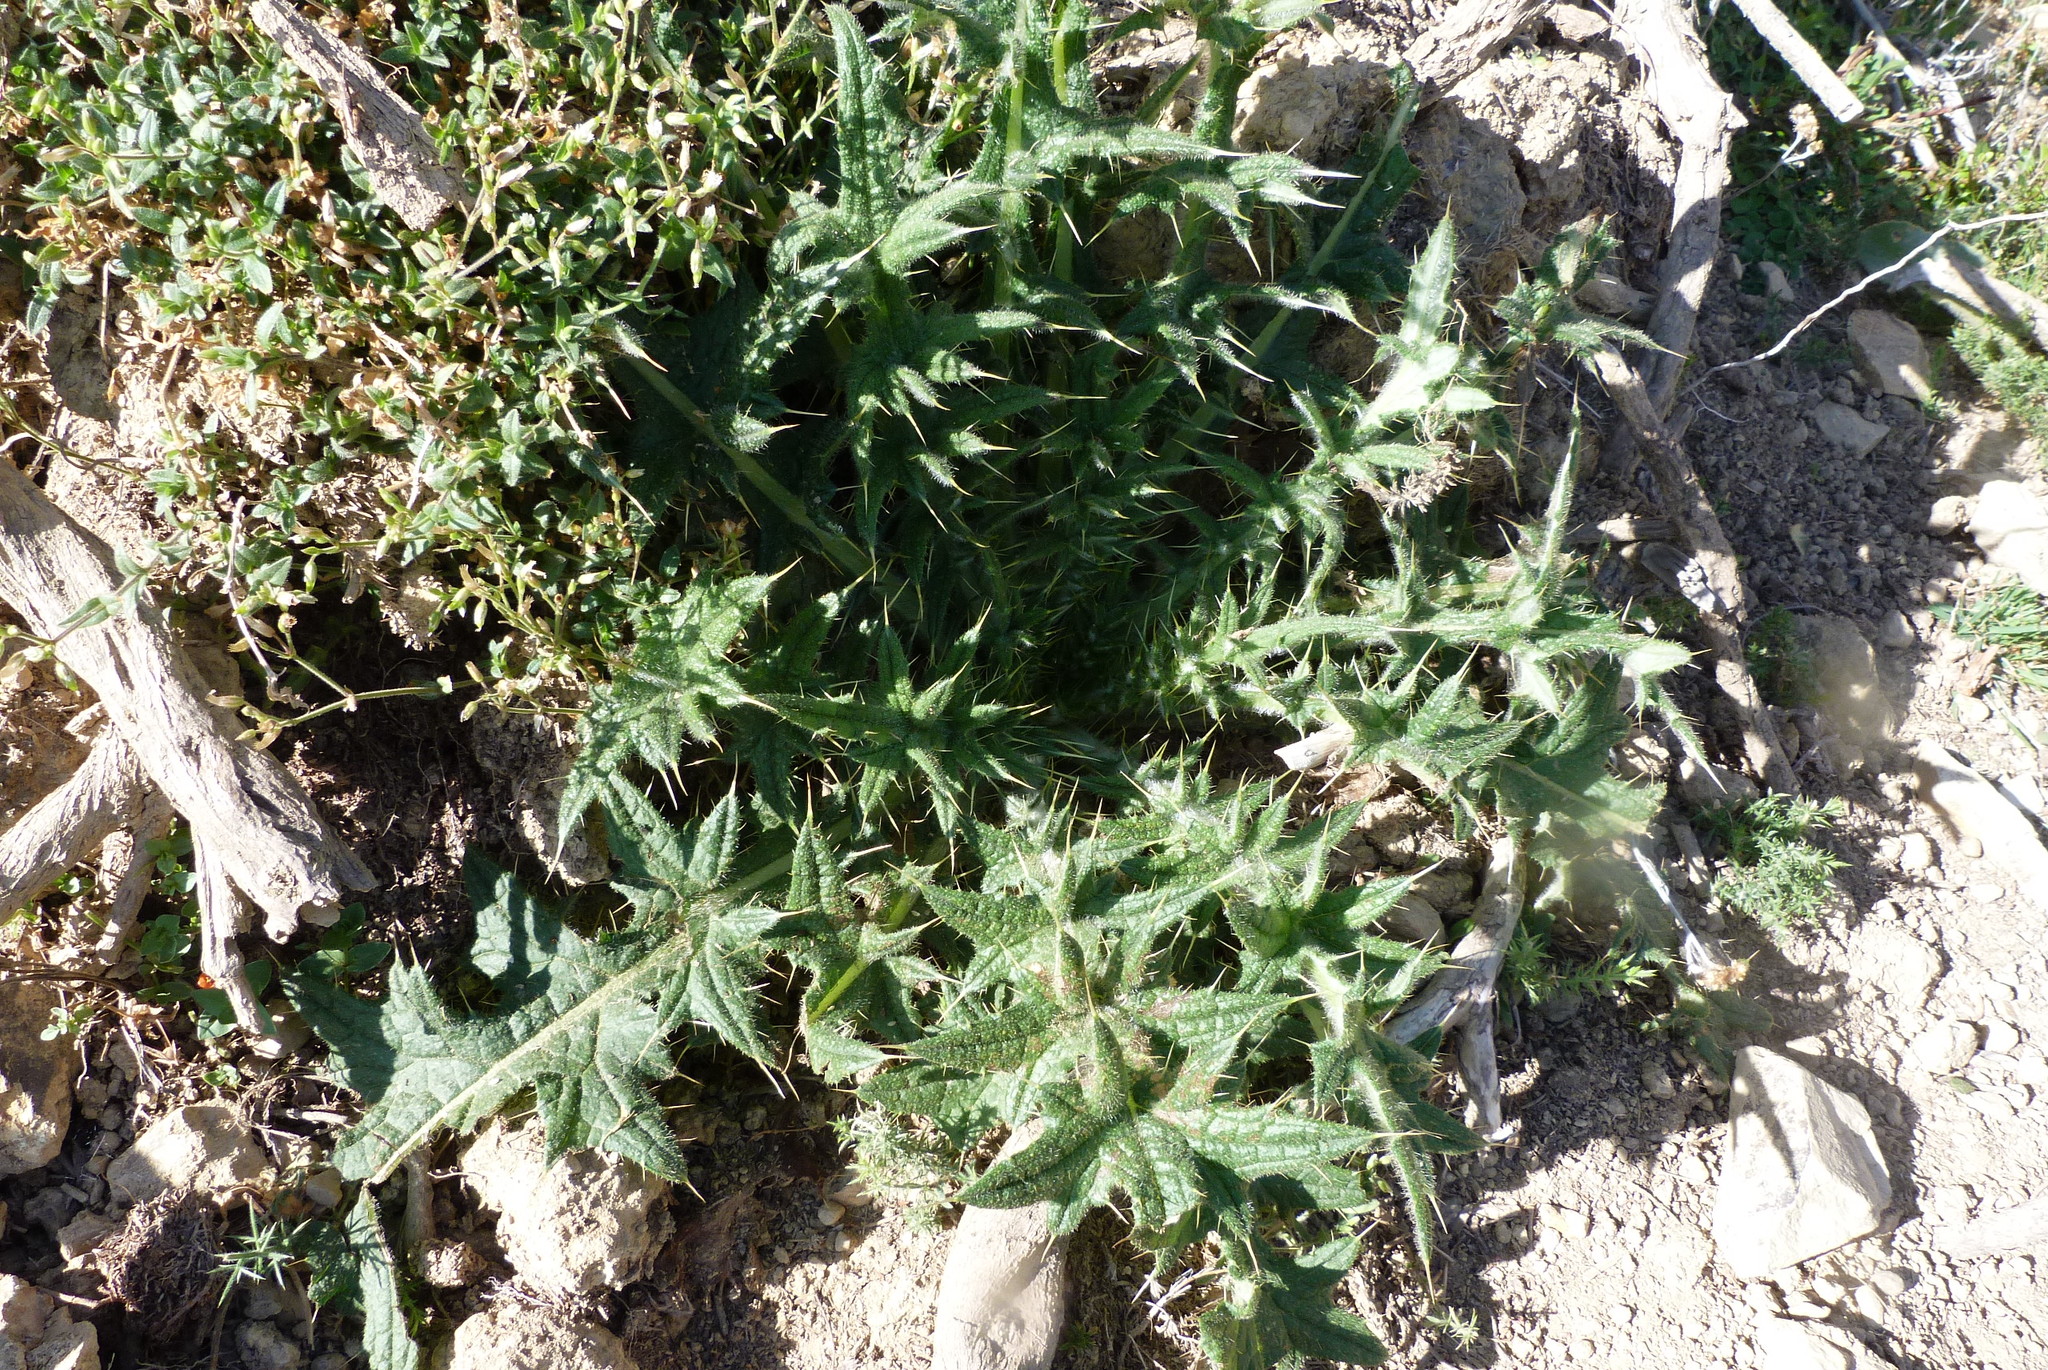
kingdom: Plantae
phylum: Tracheophyta
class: Magnoliopsida
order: Asterales
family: Asteraceae
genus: Cirsium
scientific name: Cirsium vulgare
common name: Bull thistle
